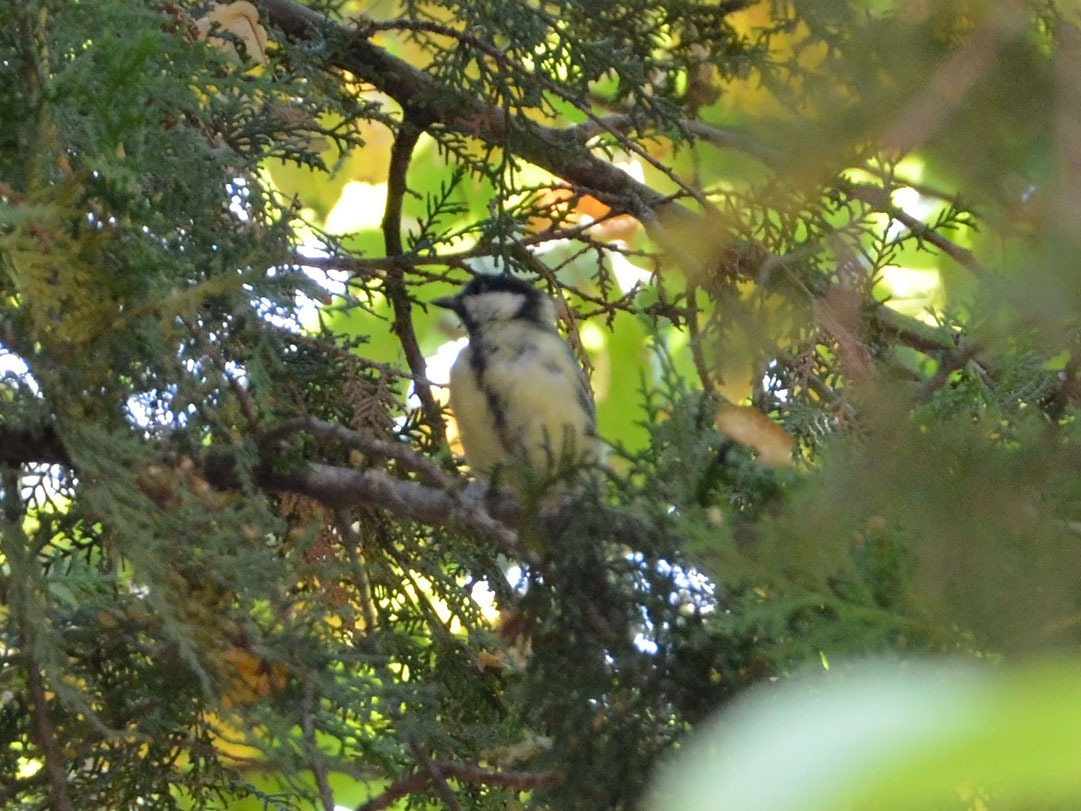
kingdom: Animalia
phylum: Chordata
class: Aves
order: Passeriformes
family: Paridae
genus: Parus
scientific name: Parus major
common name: Great tit
